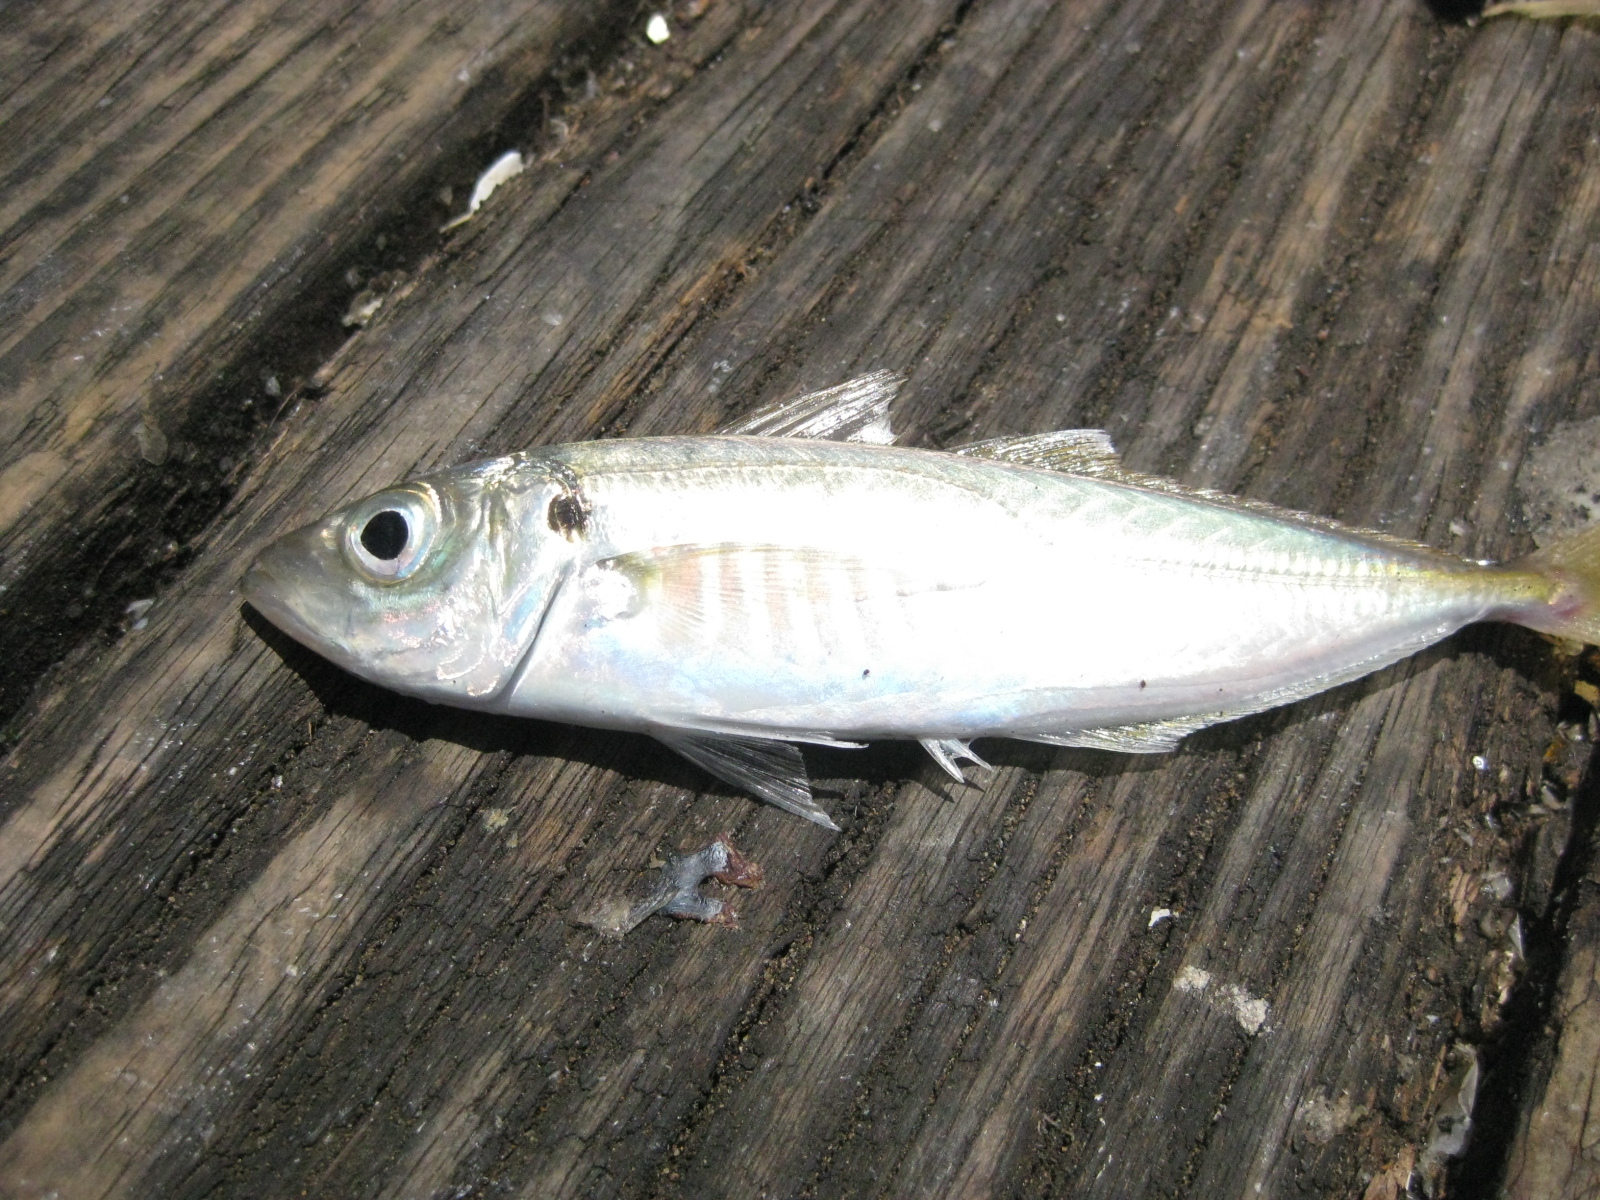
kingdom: Animalia
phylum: Chordata
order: Perciformes
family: Carangidae
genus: Trachurus
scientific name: Trachurus declivis
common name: Jack mackerel
